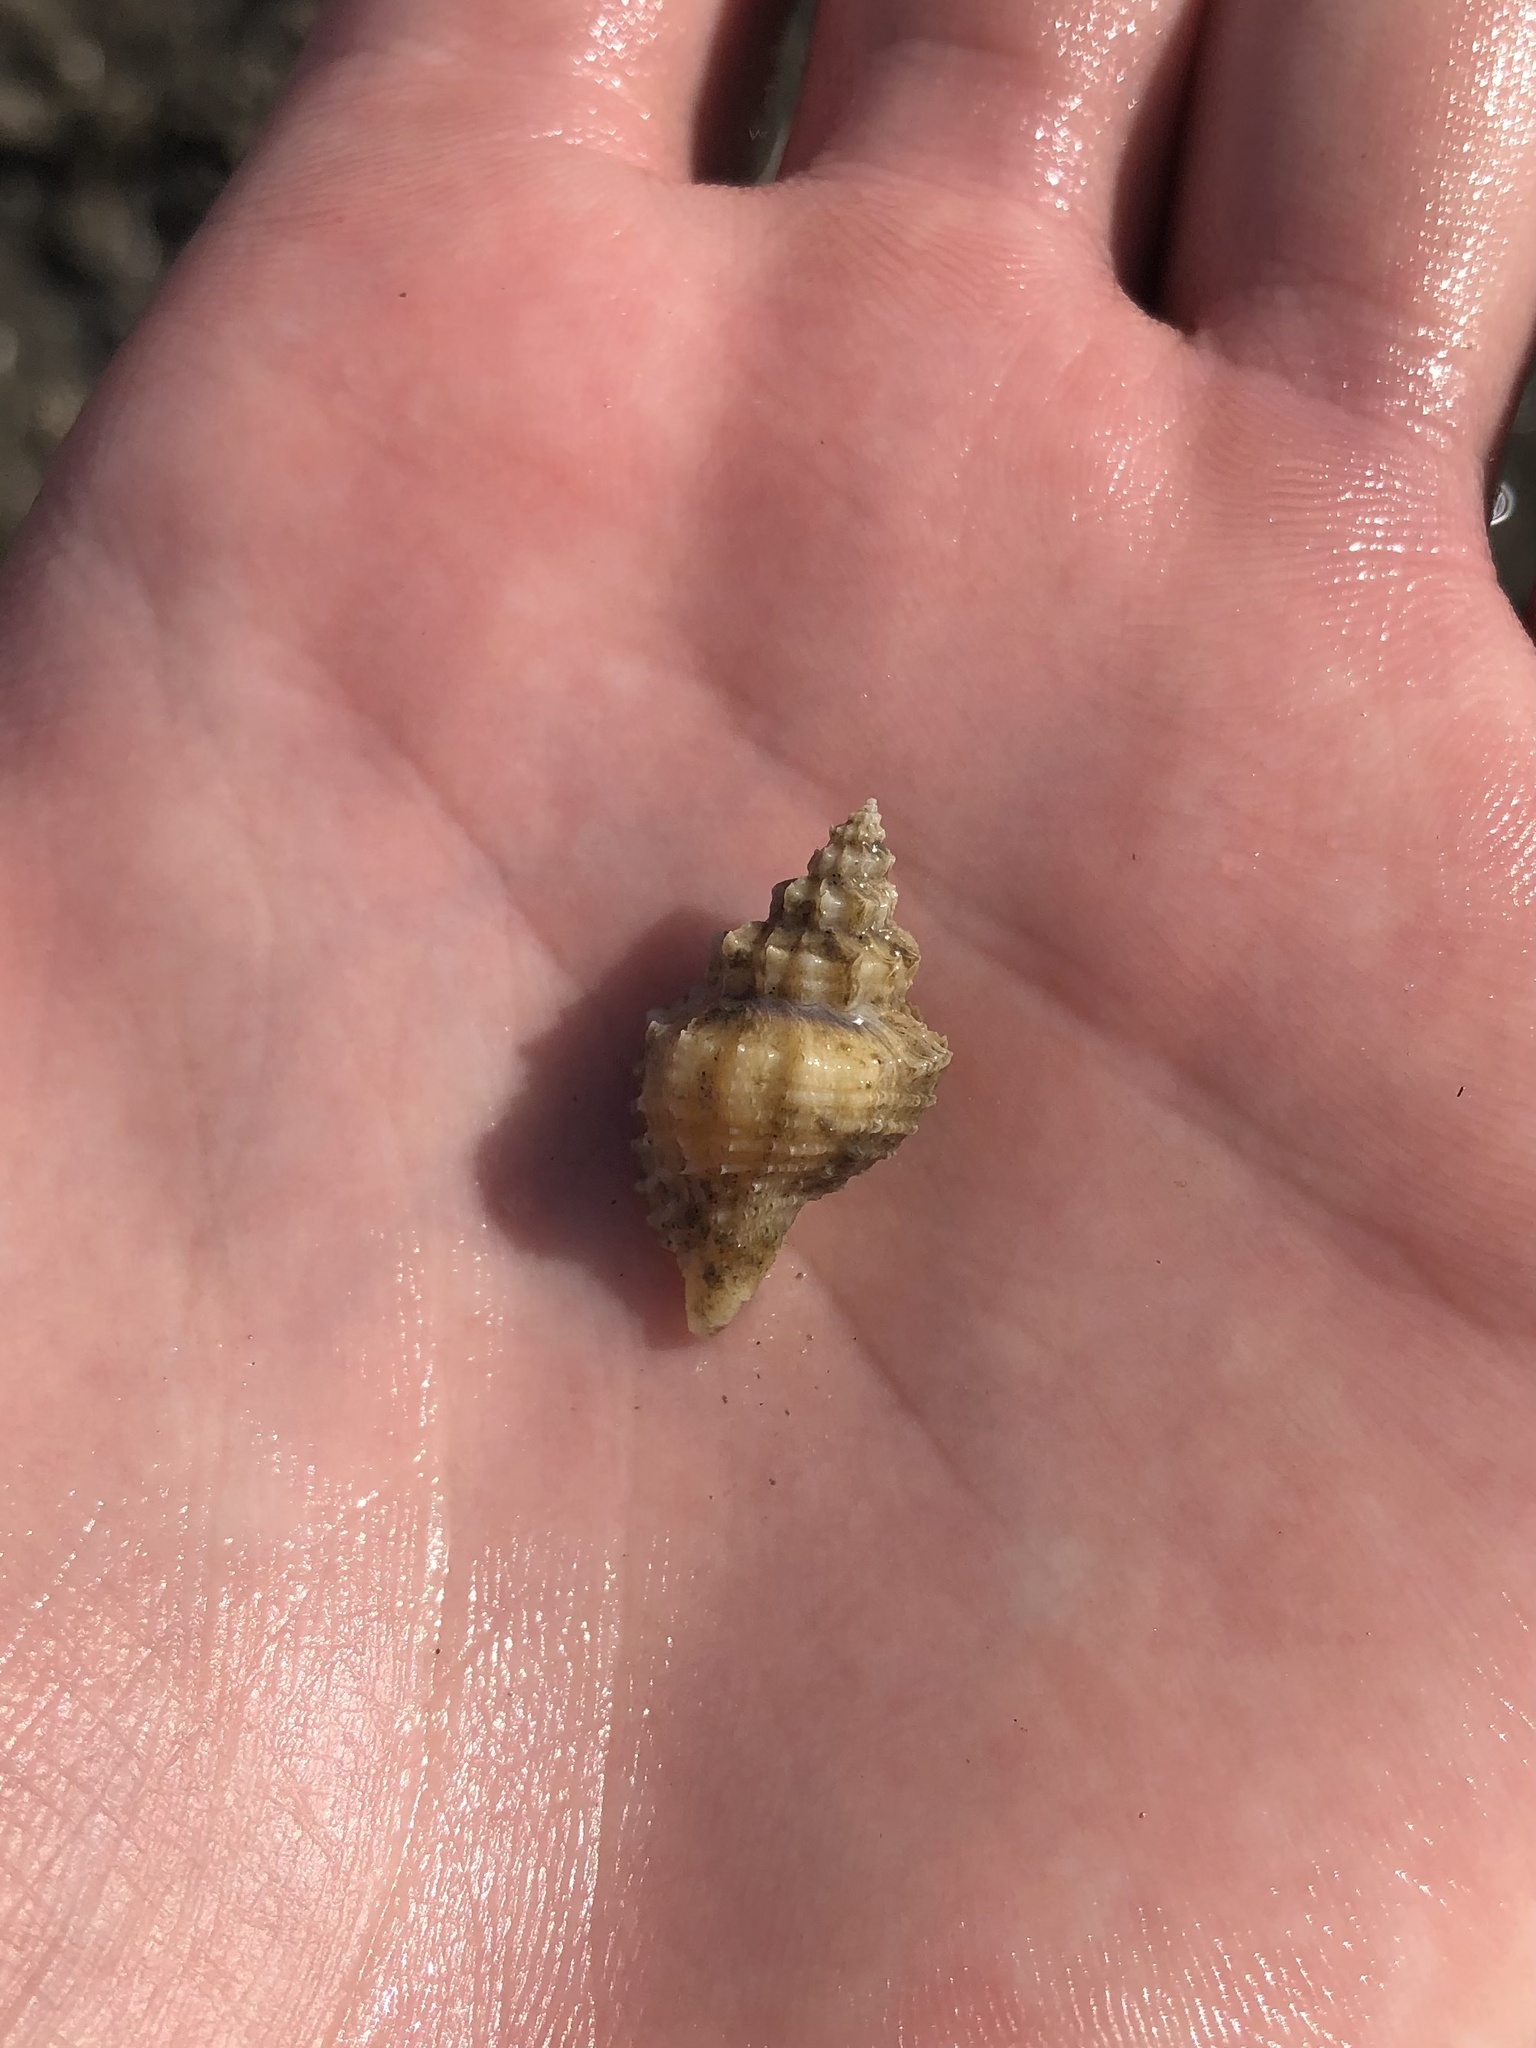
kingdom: Animalia
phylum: Mollusca
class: Gastropoda
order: Neogastropoda
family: Muricidae
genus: Eupleura
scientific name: Eupleura caudata
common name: Thick-lip drill
